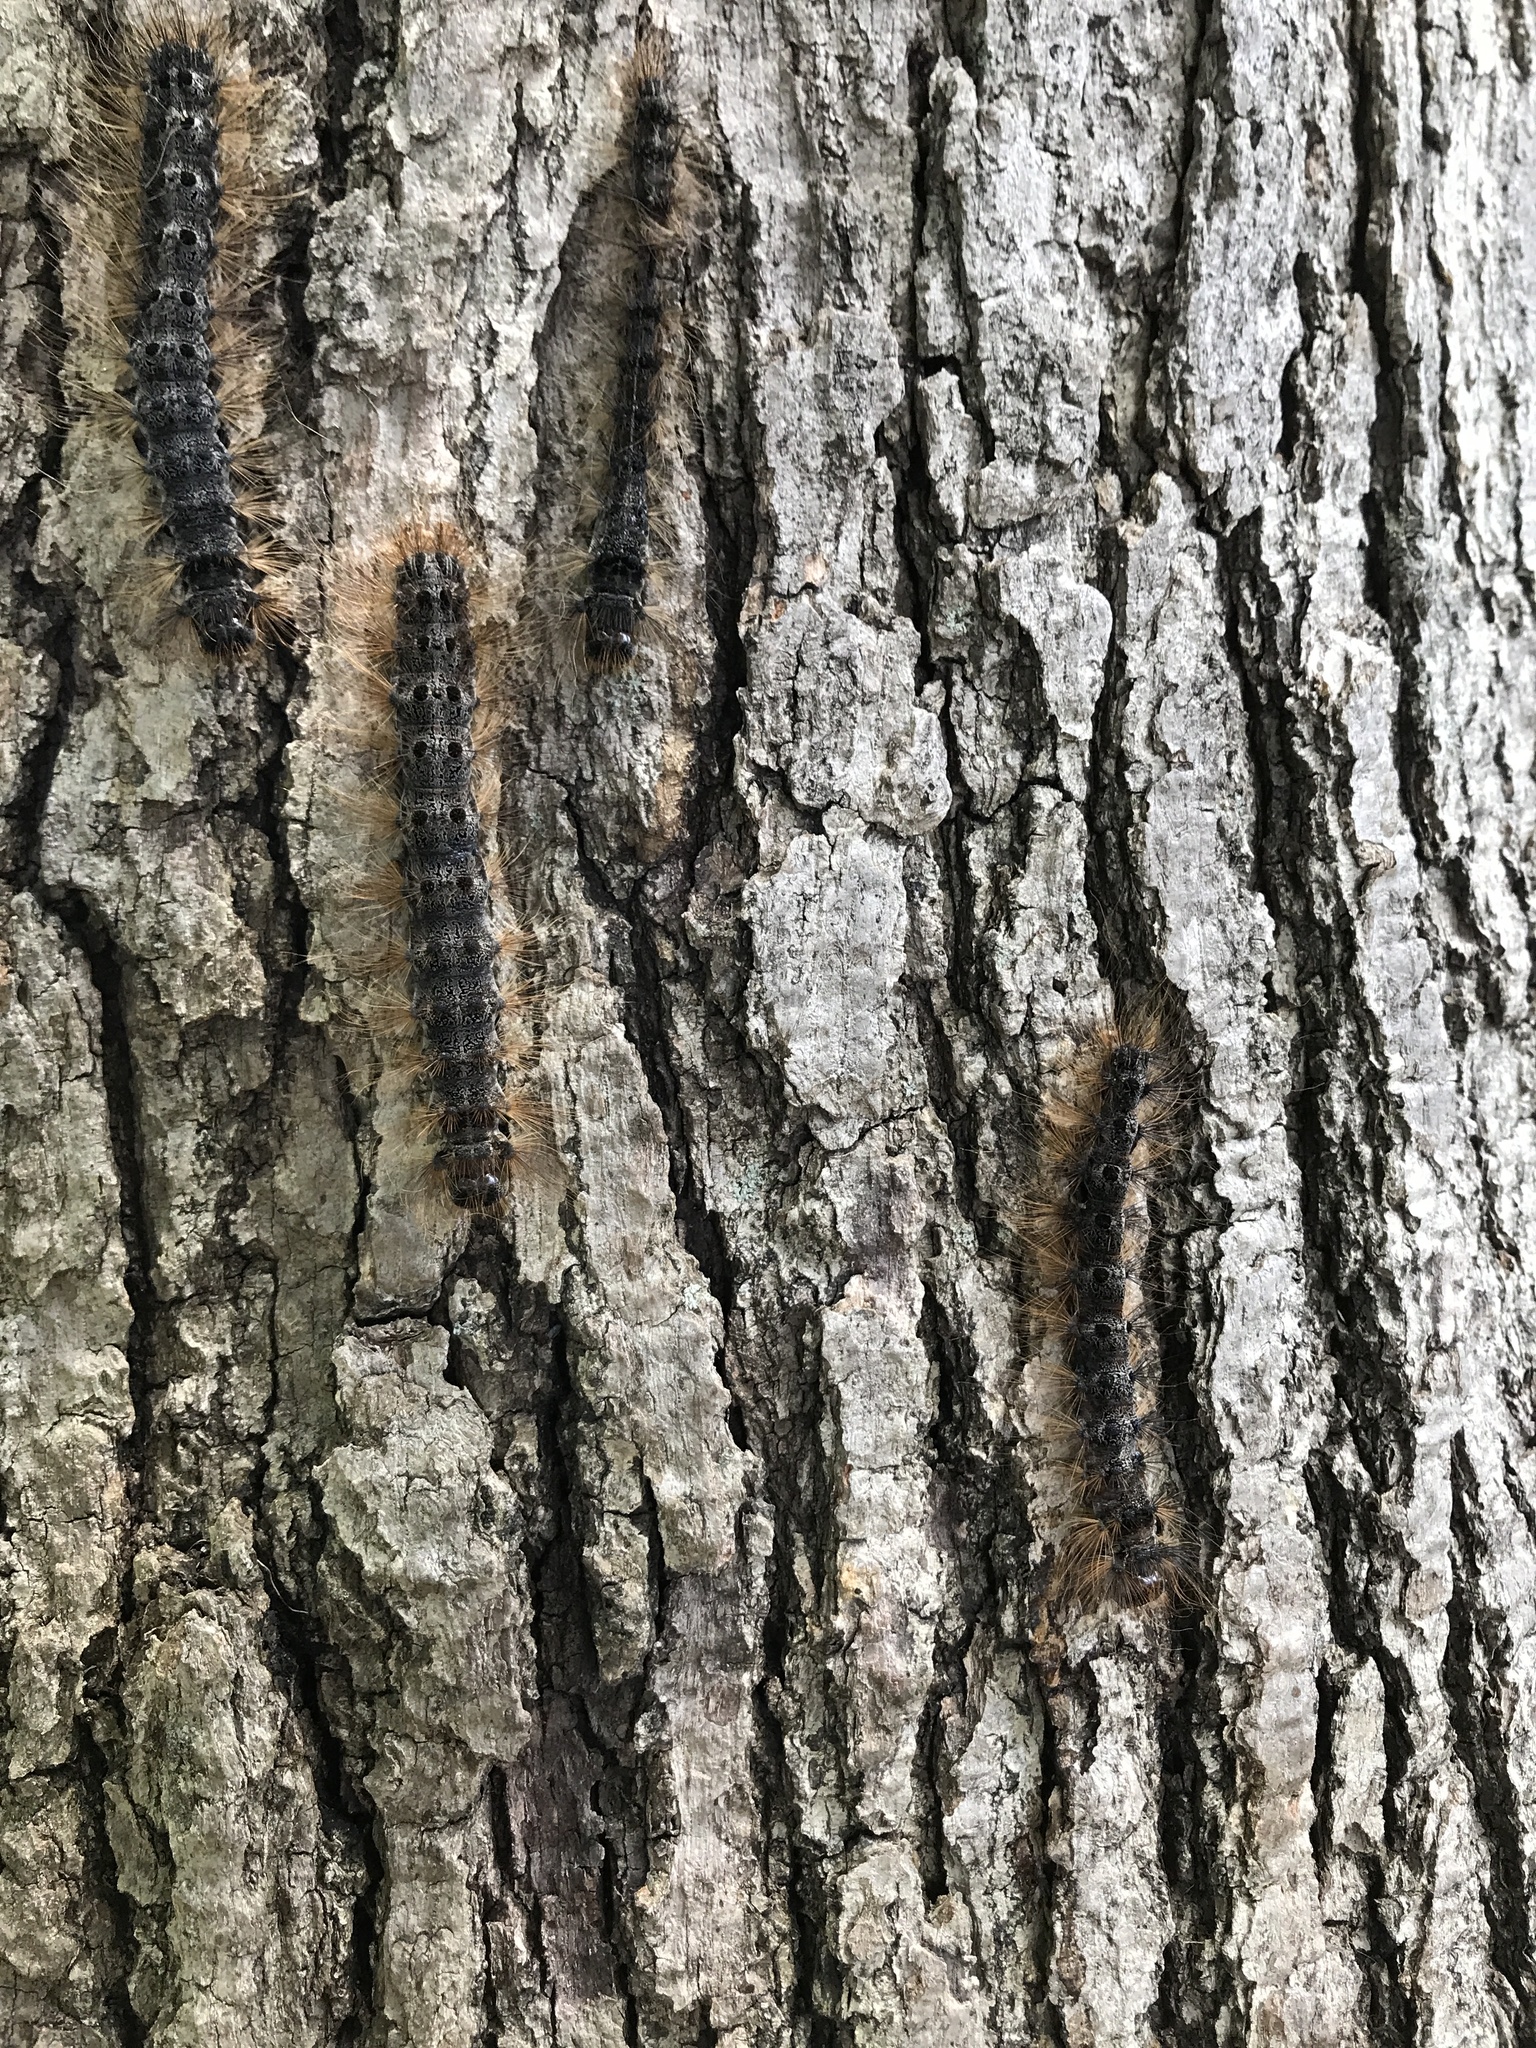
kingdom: Animalia
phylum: Arthropoda
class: Insecta
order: Lepidoptera
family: Erebidae
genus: Lymantria
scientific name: Lymantria dispar
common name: Gypsy moth
